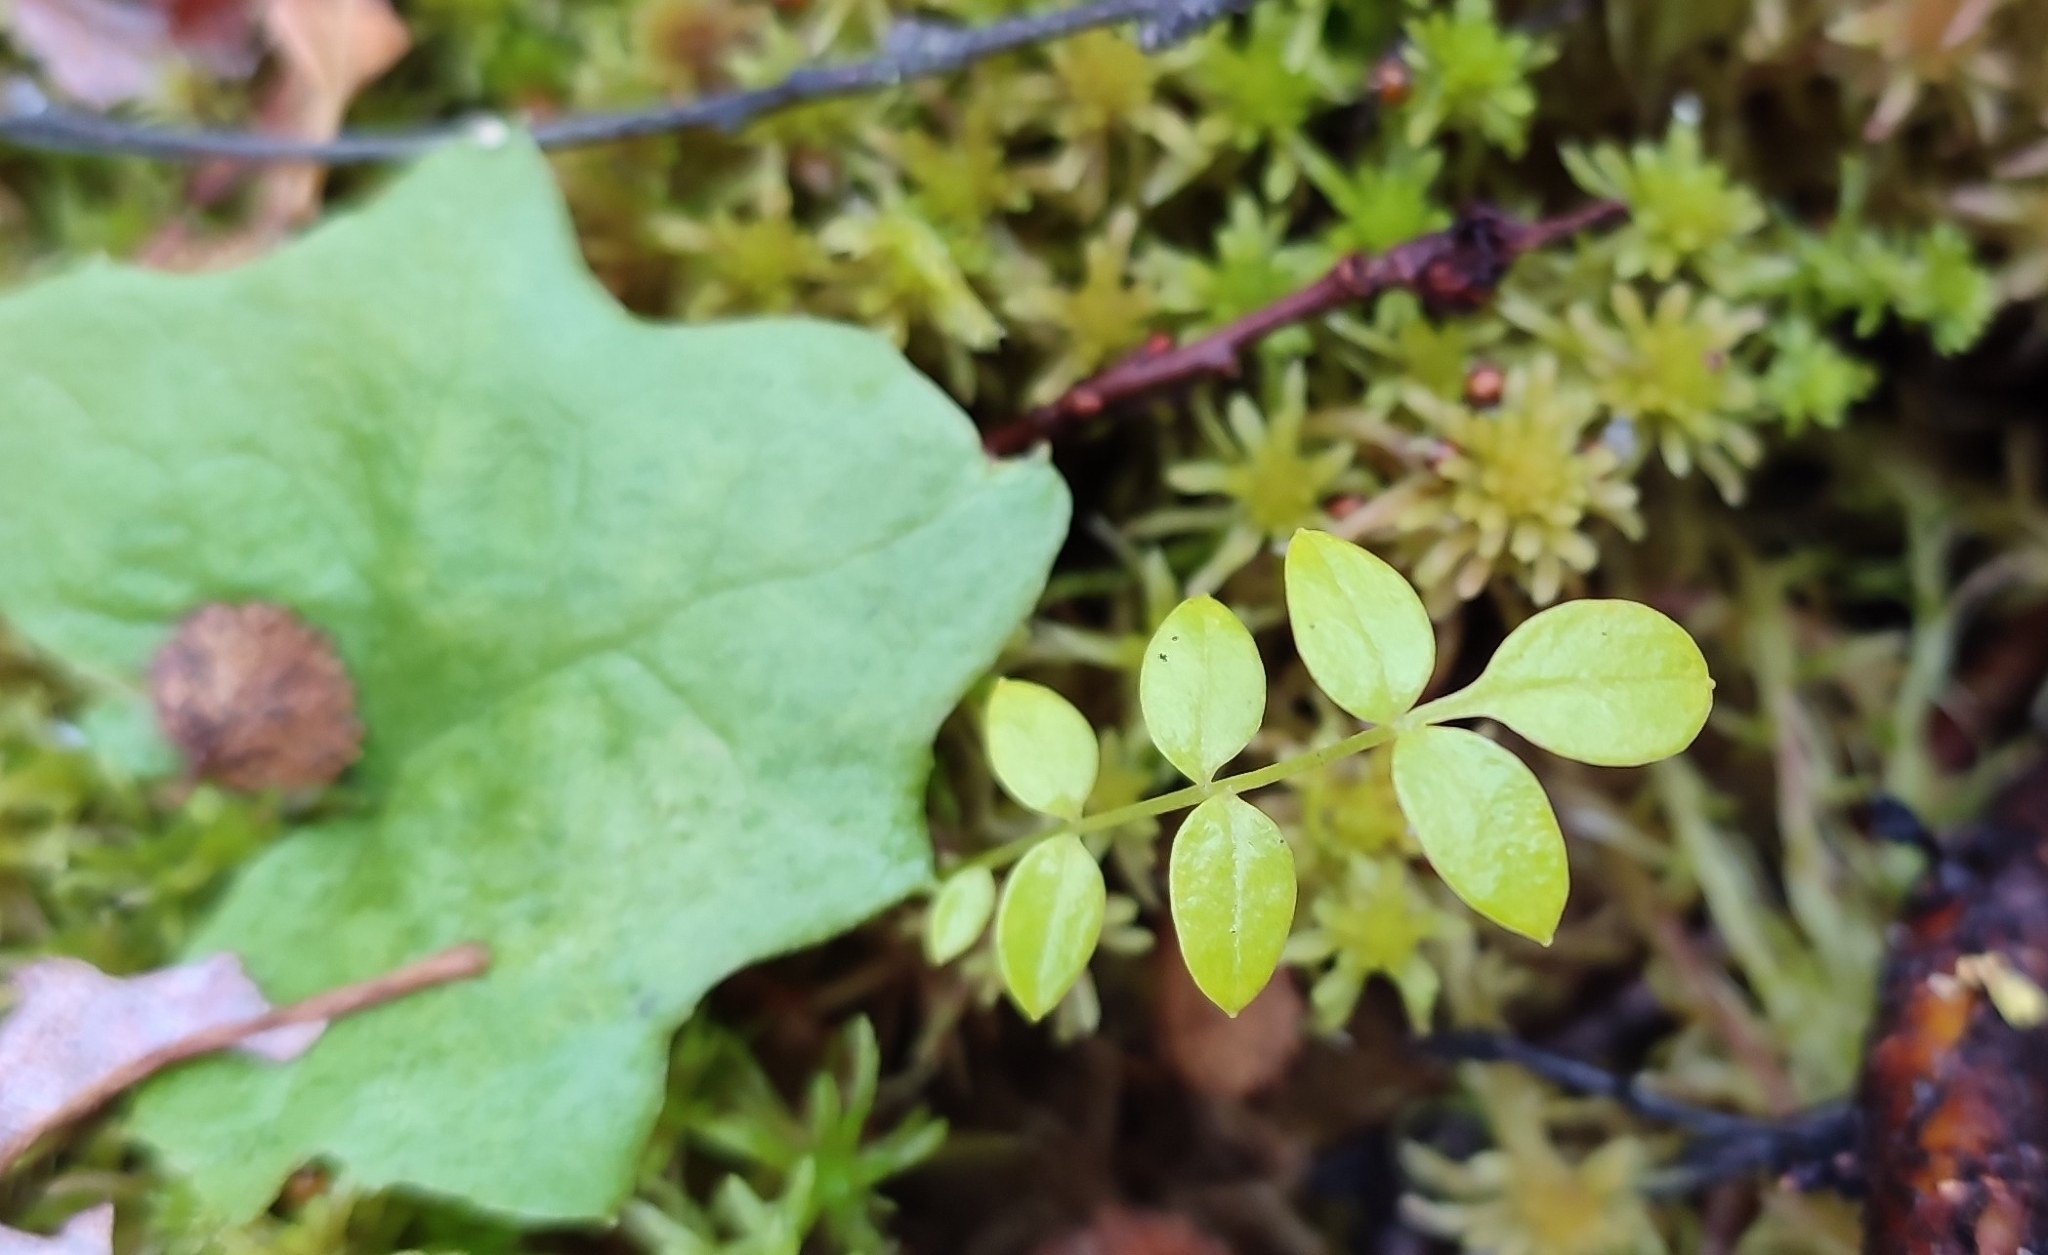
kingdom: Plantae
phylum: Tracheophyta
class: Magnoliopsida
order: Ericales
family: Polemoniaceae
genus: Polemonium
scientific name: Polemonium acutiflorum
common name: Tall jacob's-ladder
